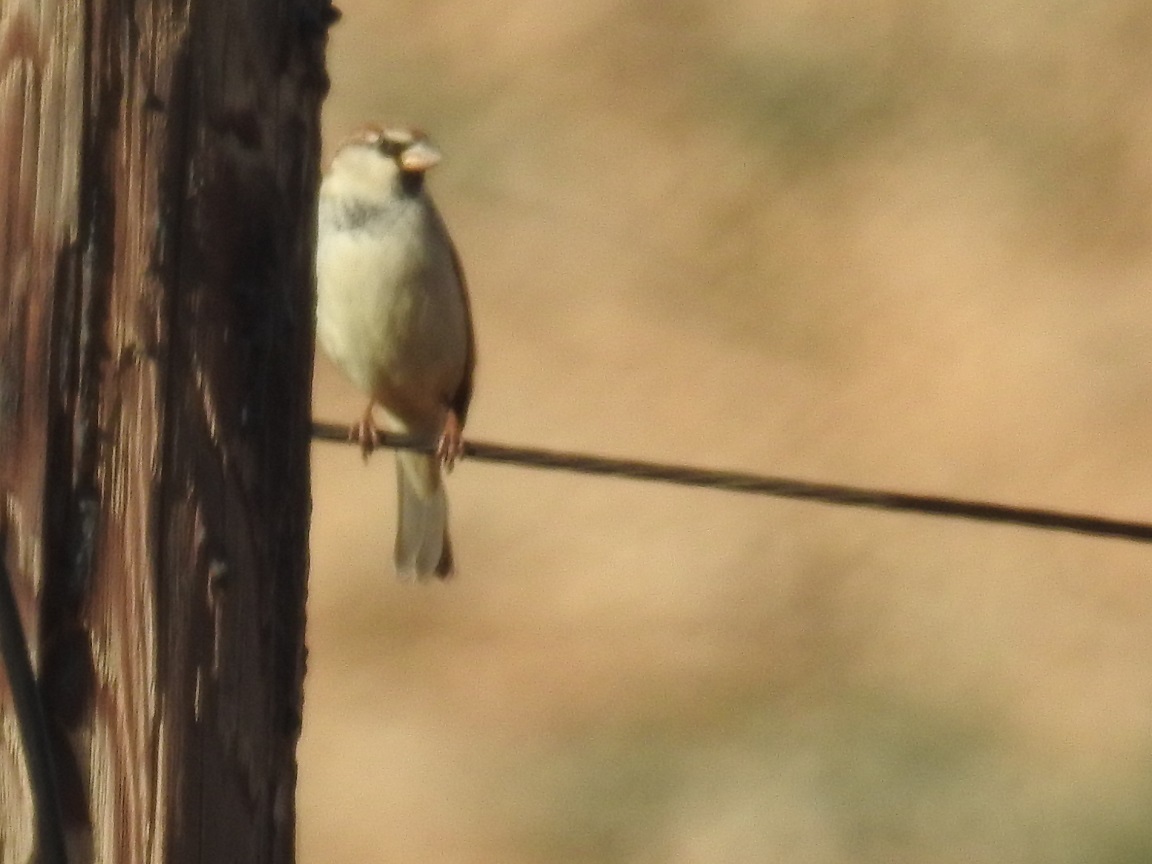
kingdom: Animalia
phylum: Chordata
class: Aves
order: Passeriformes
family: Passeridae
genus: Passer
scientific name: Passer domesticus
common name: House sparrow
